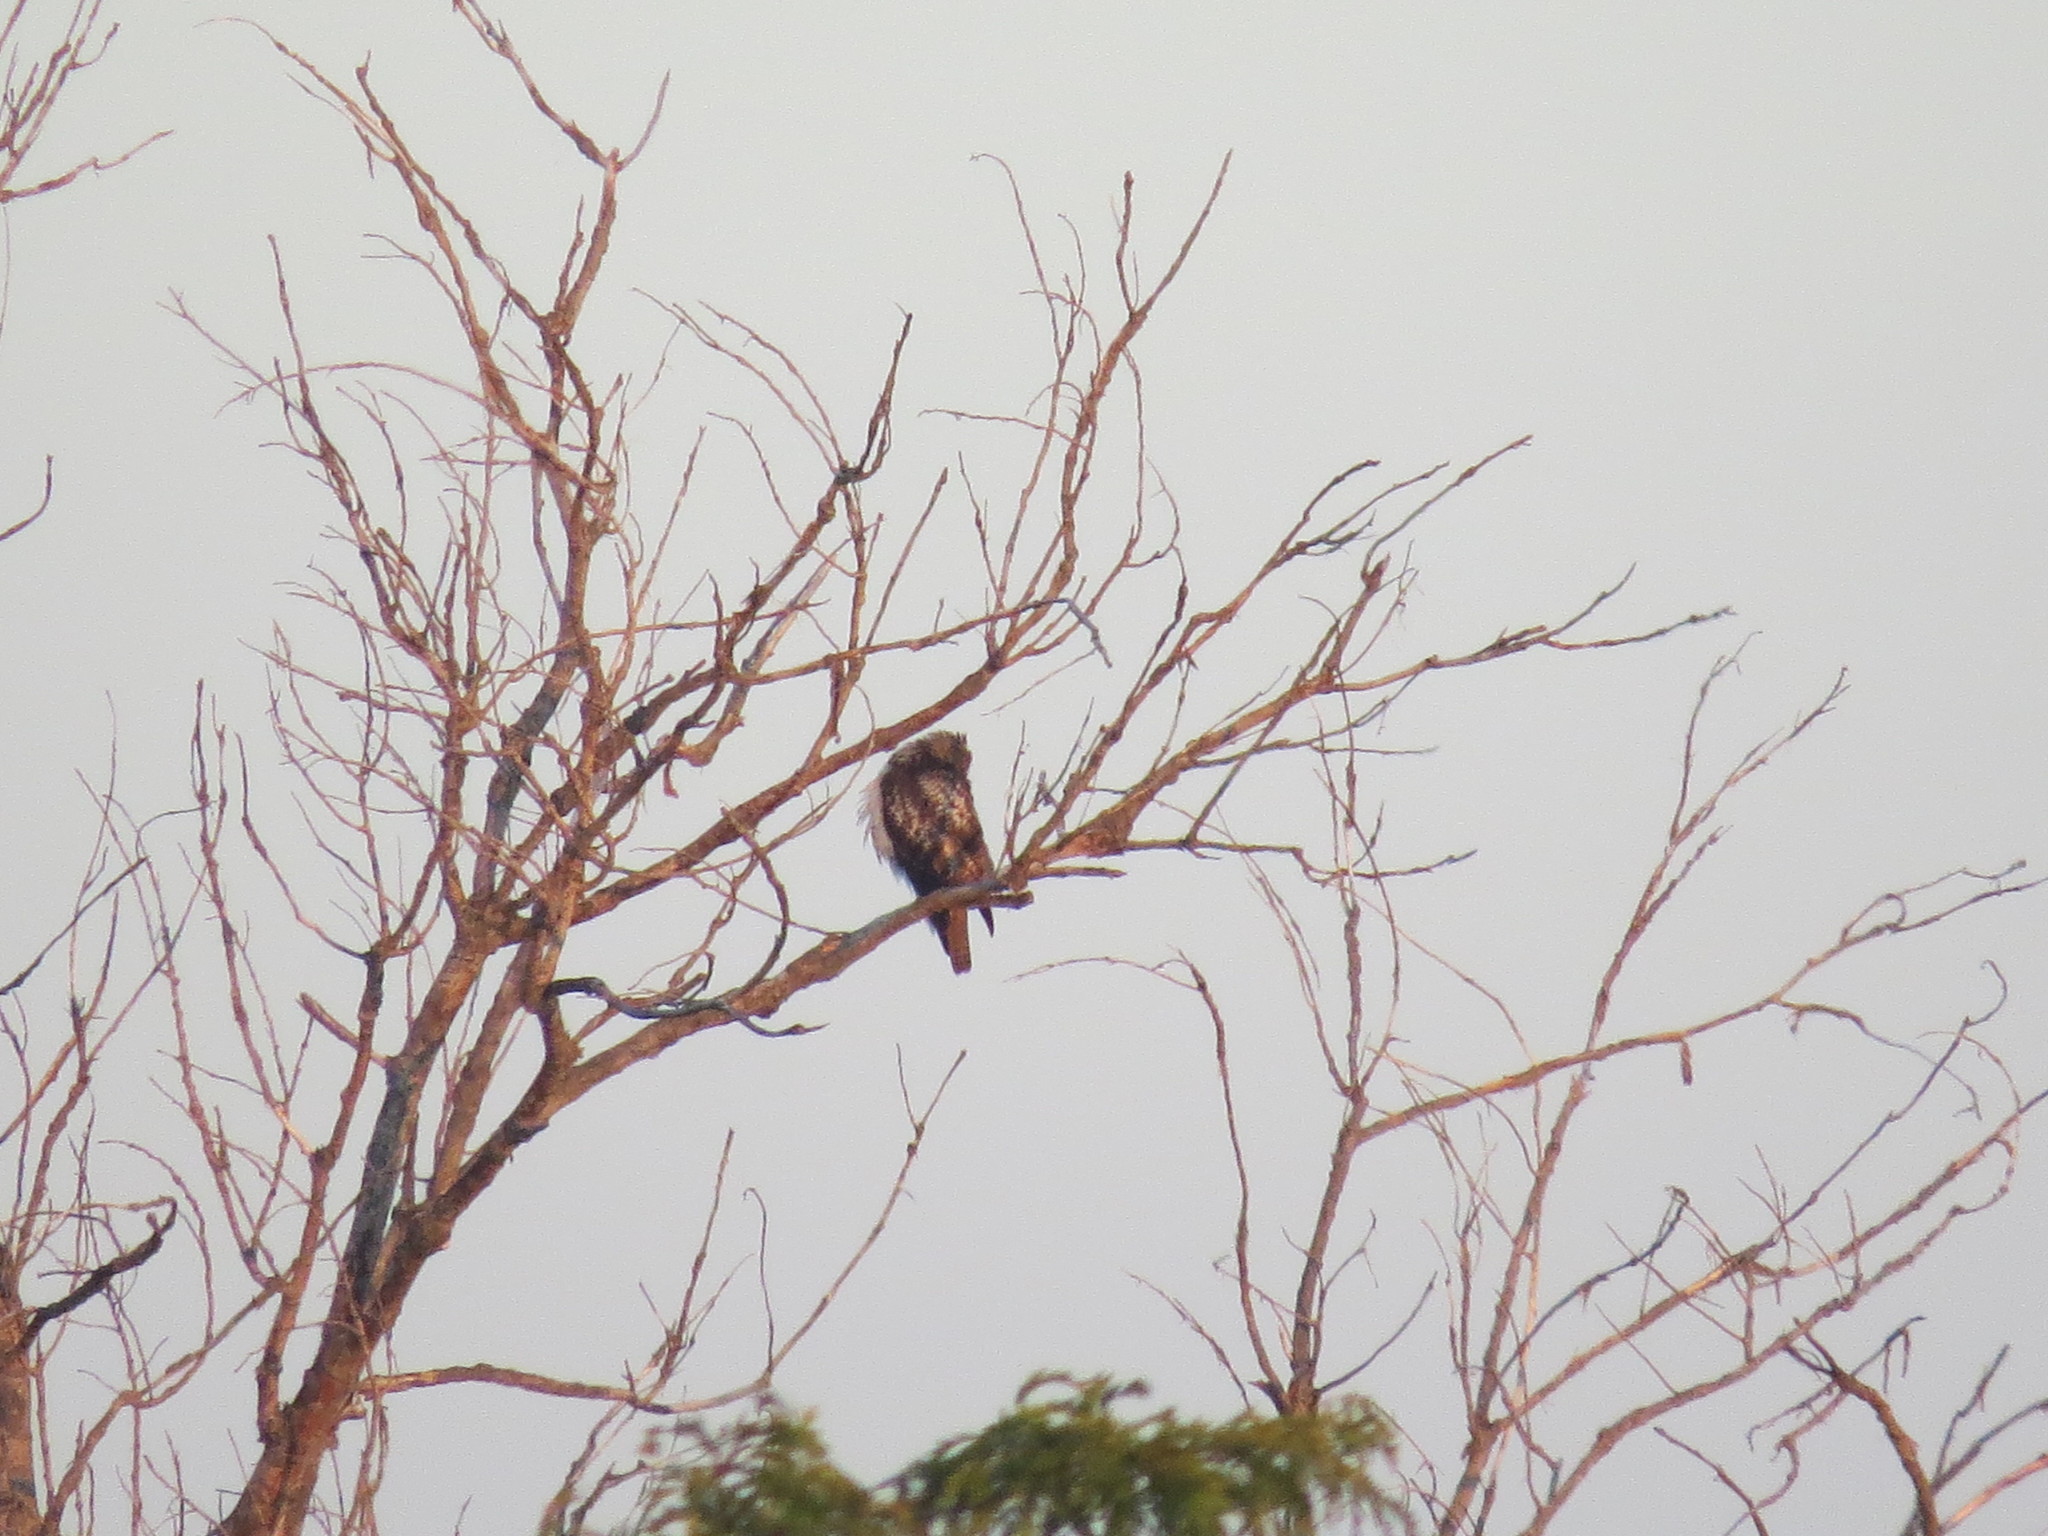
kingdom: Animalia
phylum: Chordata
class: Aves
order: Accipitriformes
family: Accipitridae
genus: Buteo
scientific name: Buteo jamaicensis
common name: Red-tailed hawk
